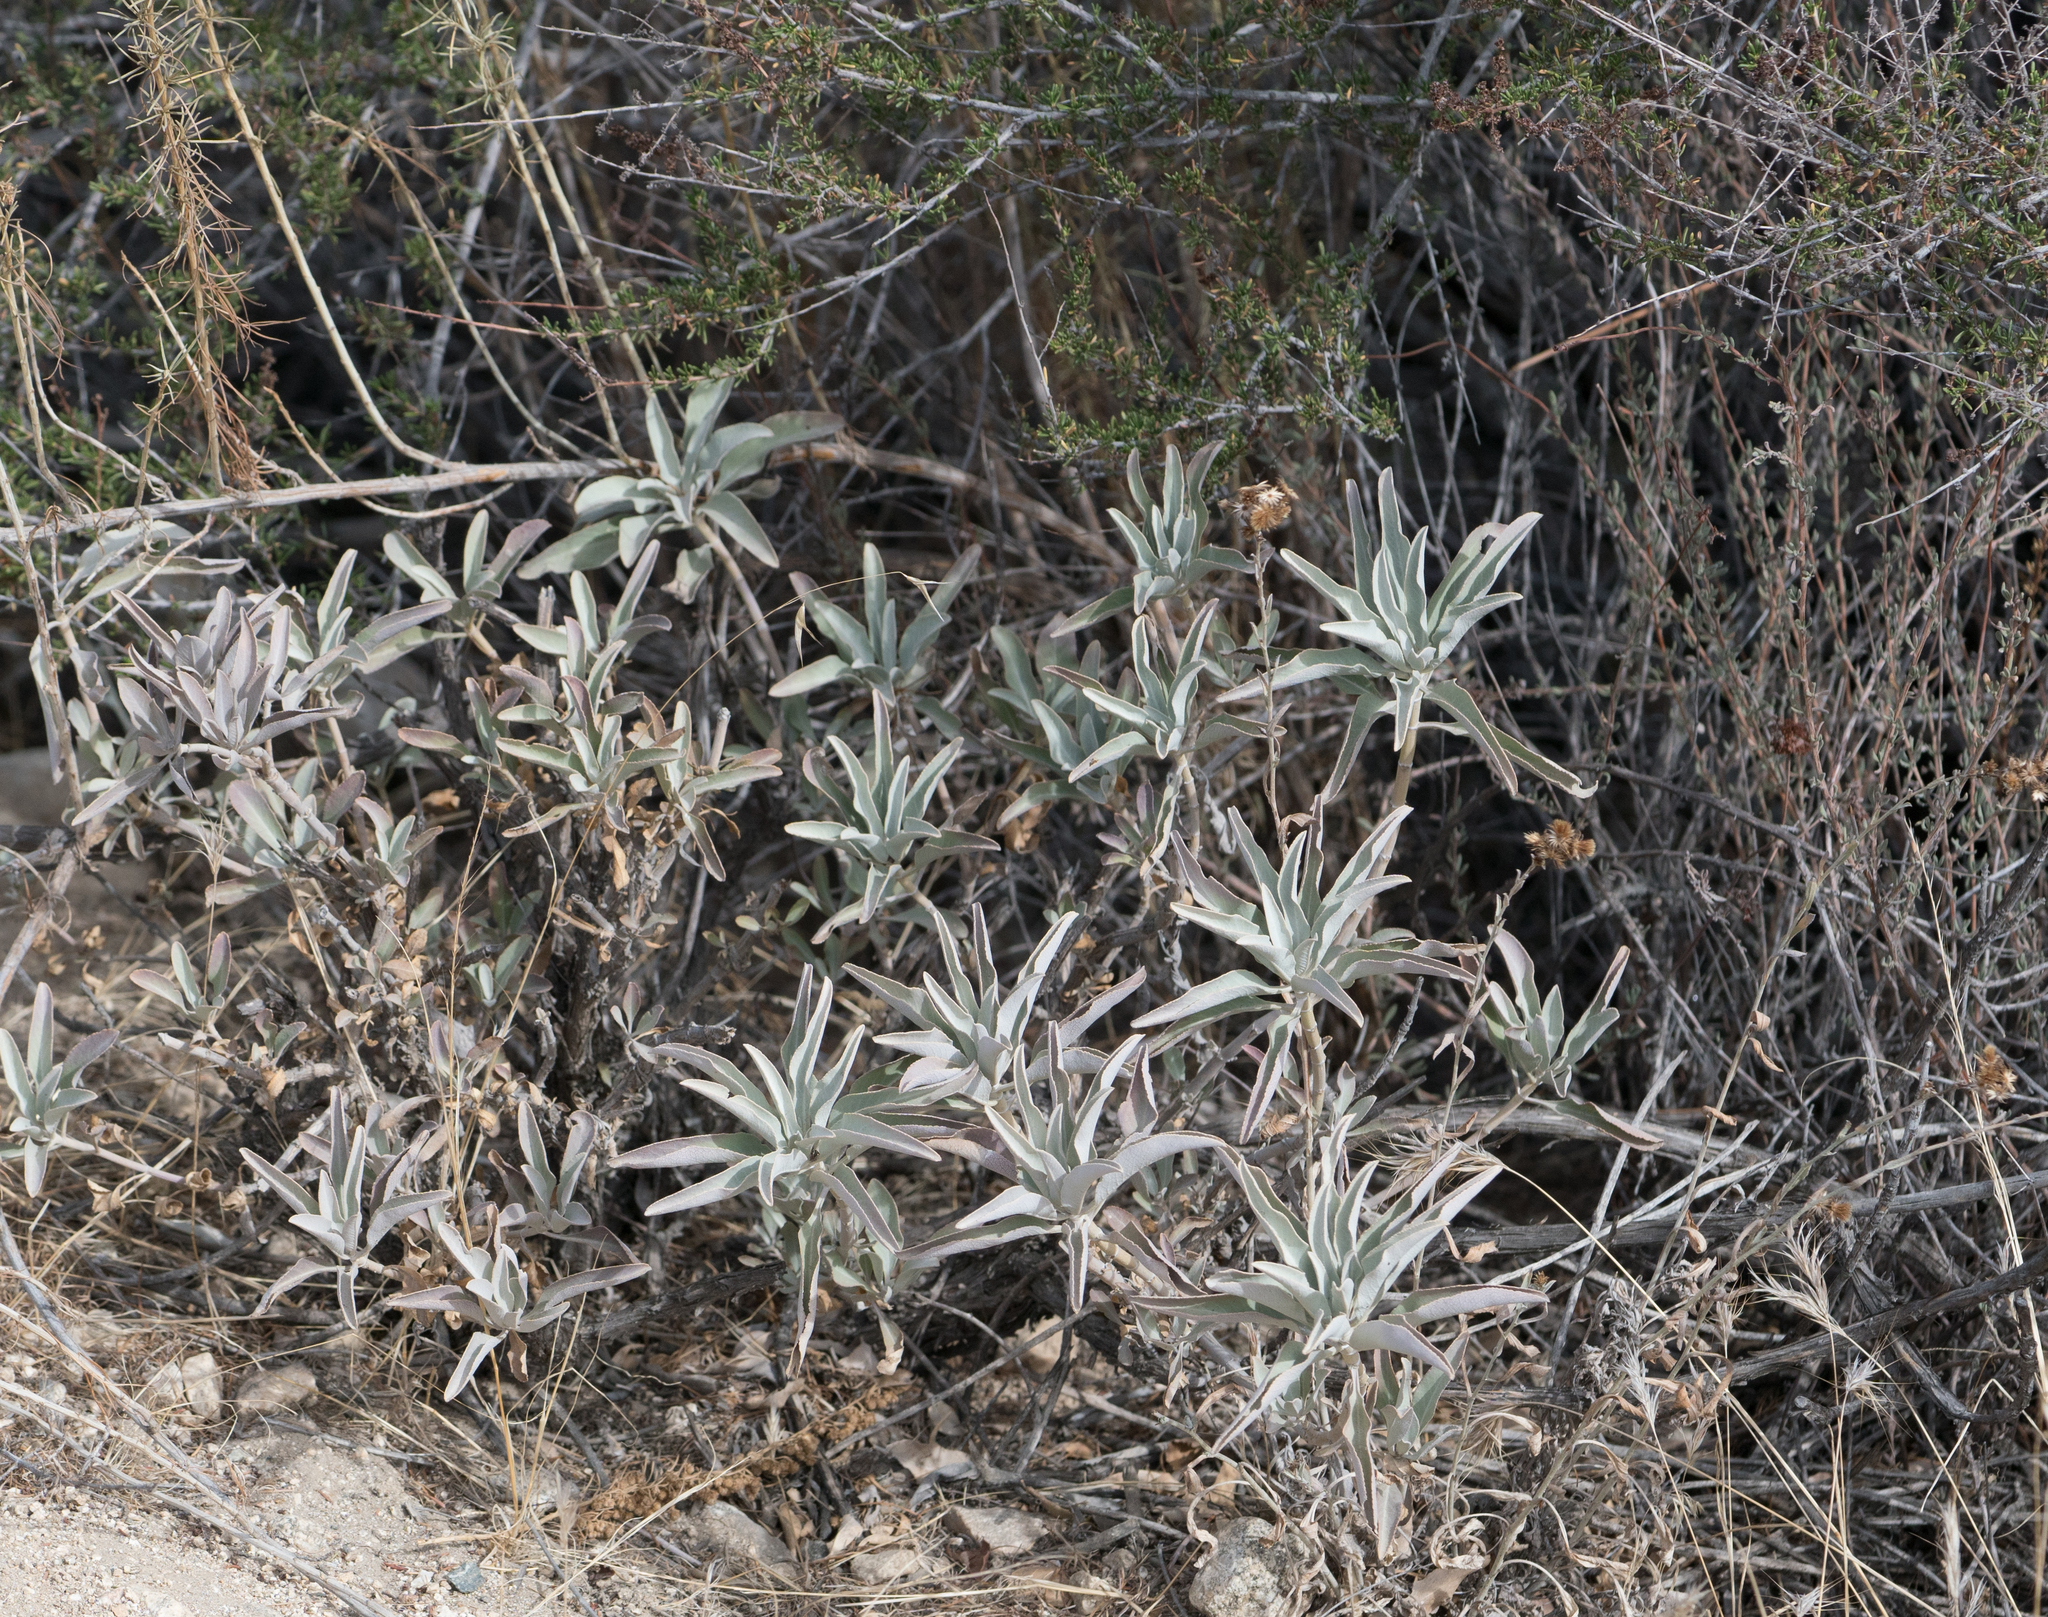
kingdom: Plantae
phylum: Tracheophyta
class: Magnoliopsida
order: Lamiales
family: Lamiaceae
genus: Salvia
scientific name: Salvia apiana
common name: White sage
